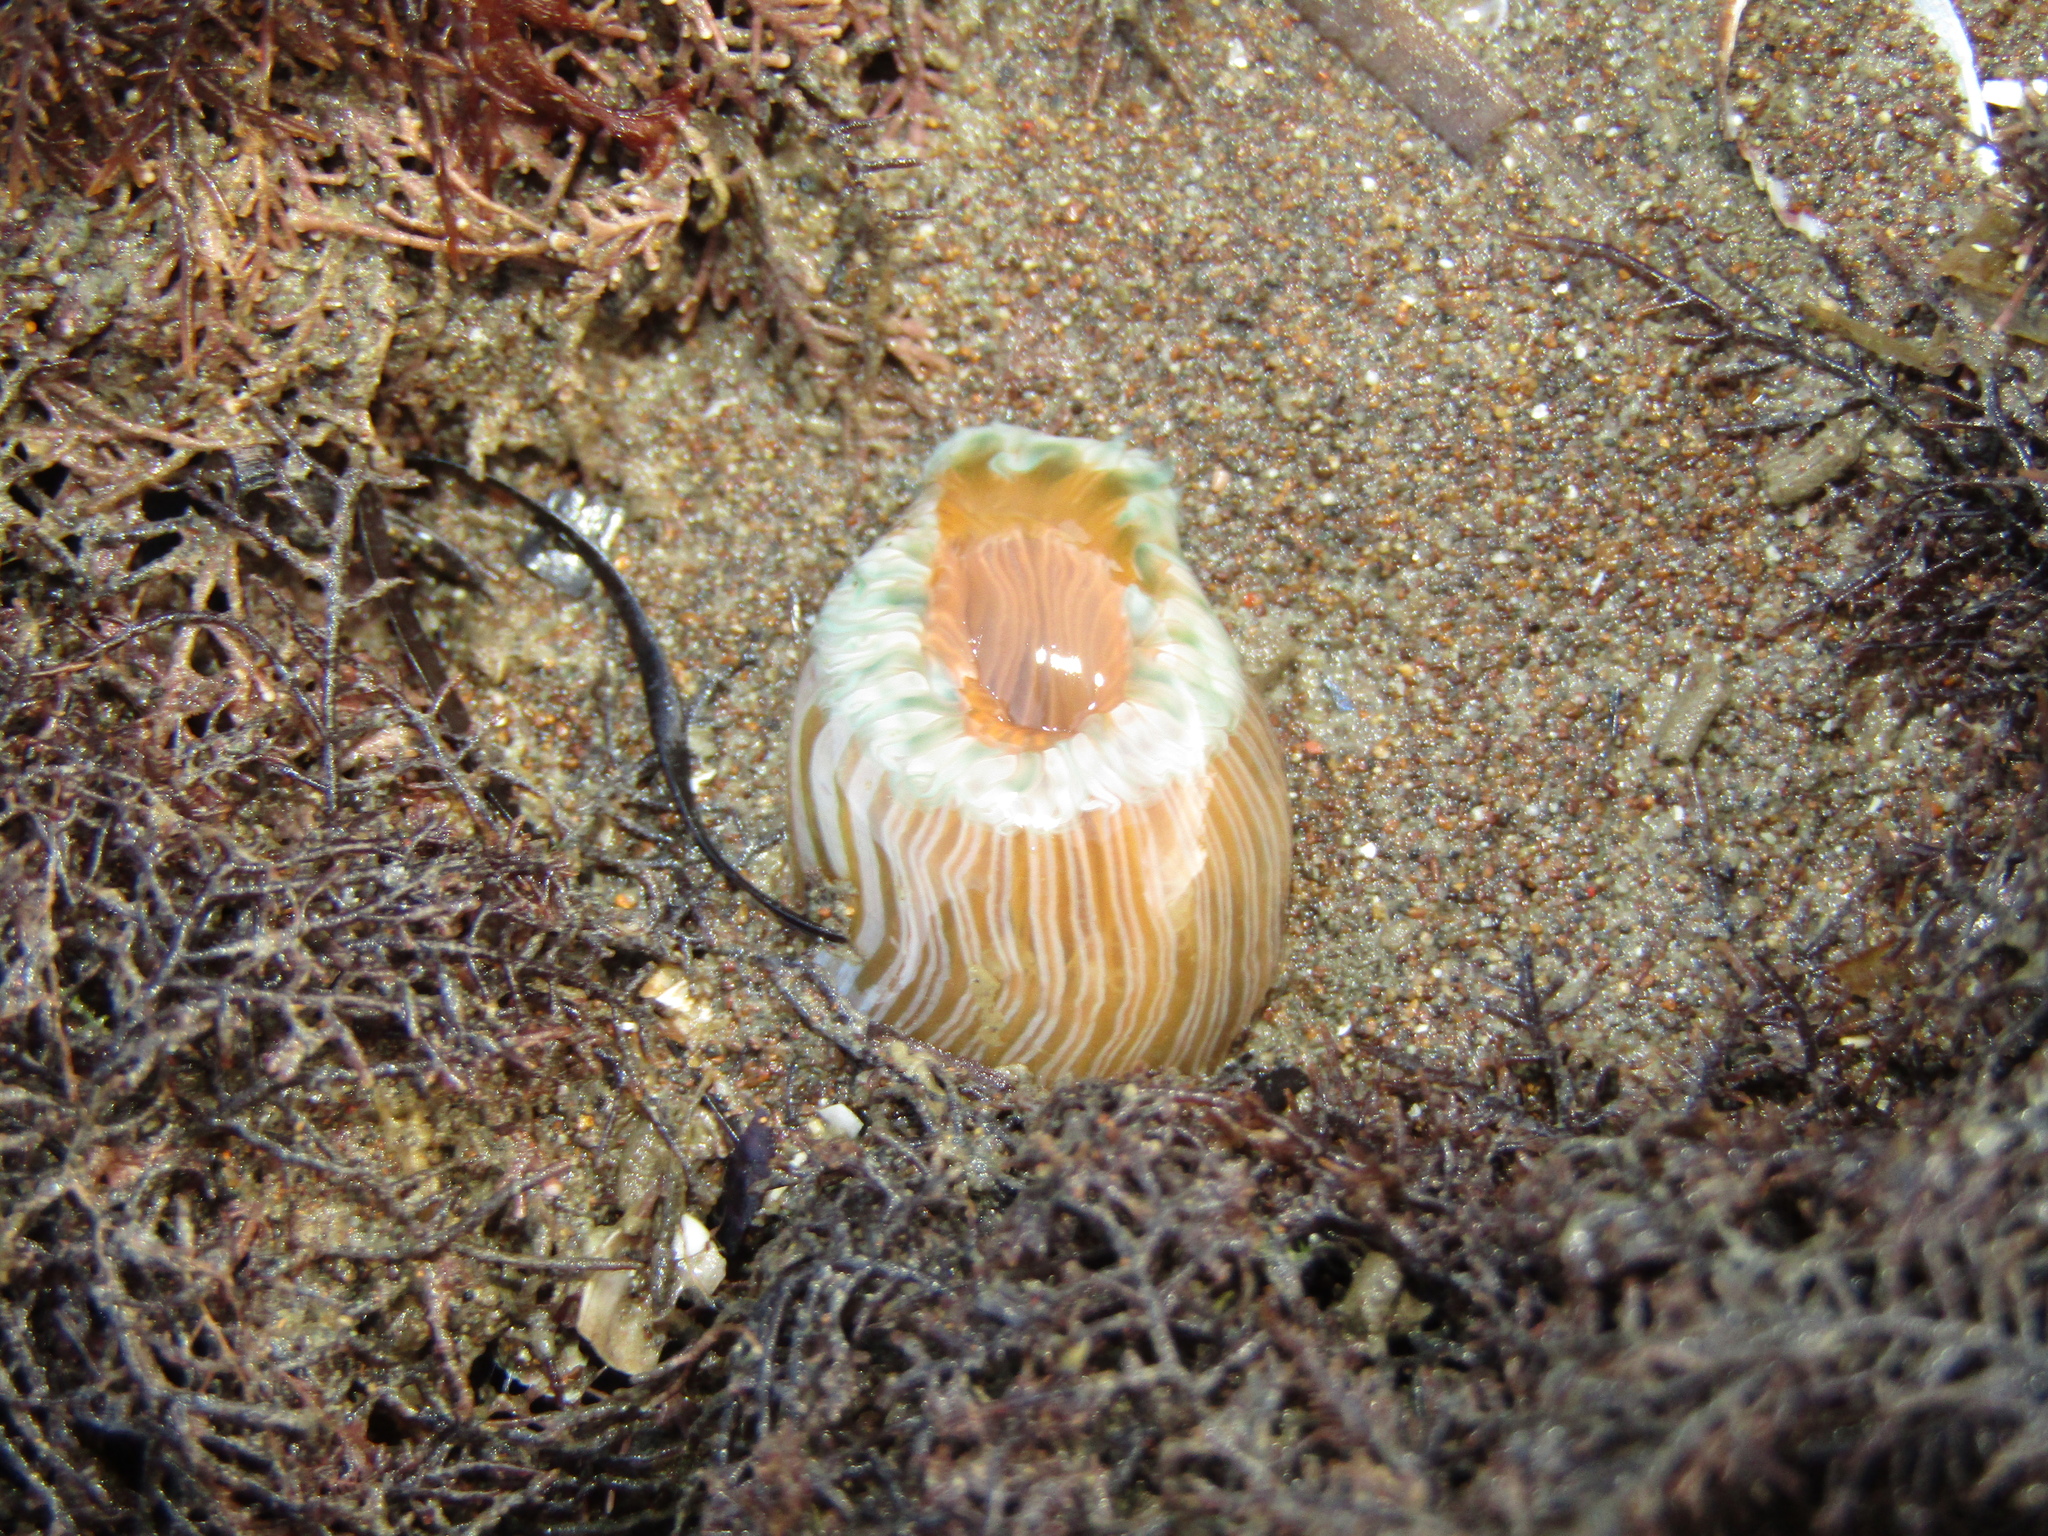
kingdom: Animalia
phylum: Cnidaria
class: Anthozoa
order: Actiniaria
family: Sagartiidae
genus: Anthothoe
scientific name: Anthothoe albocincta
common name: Orange striped anemone
